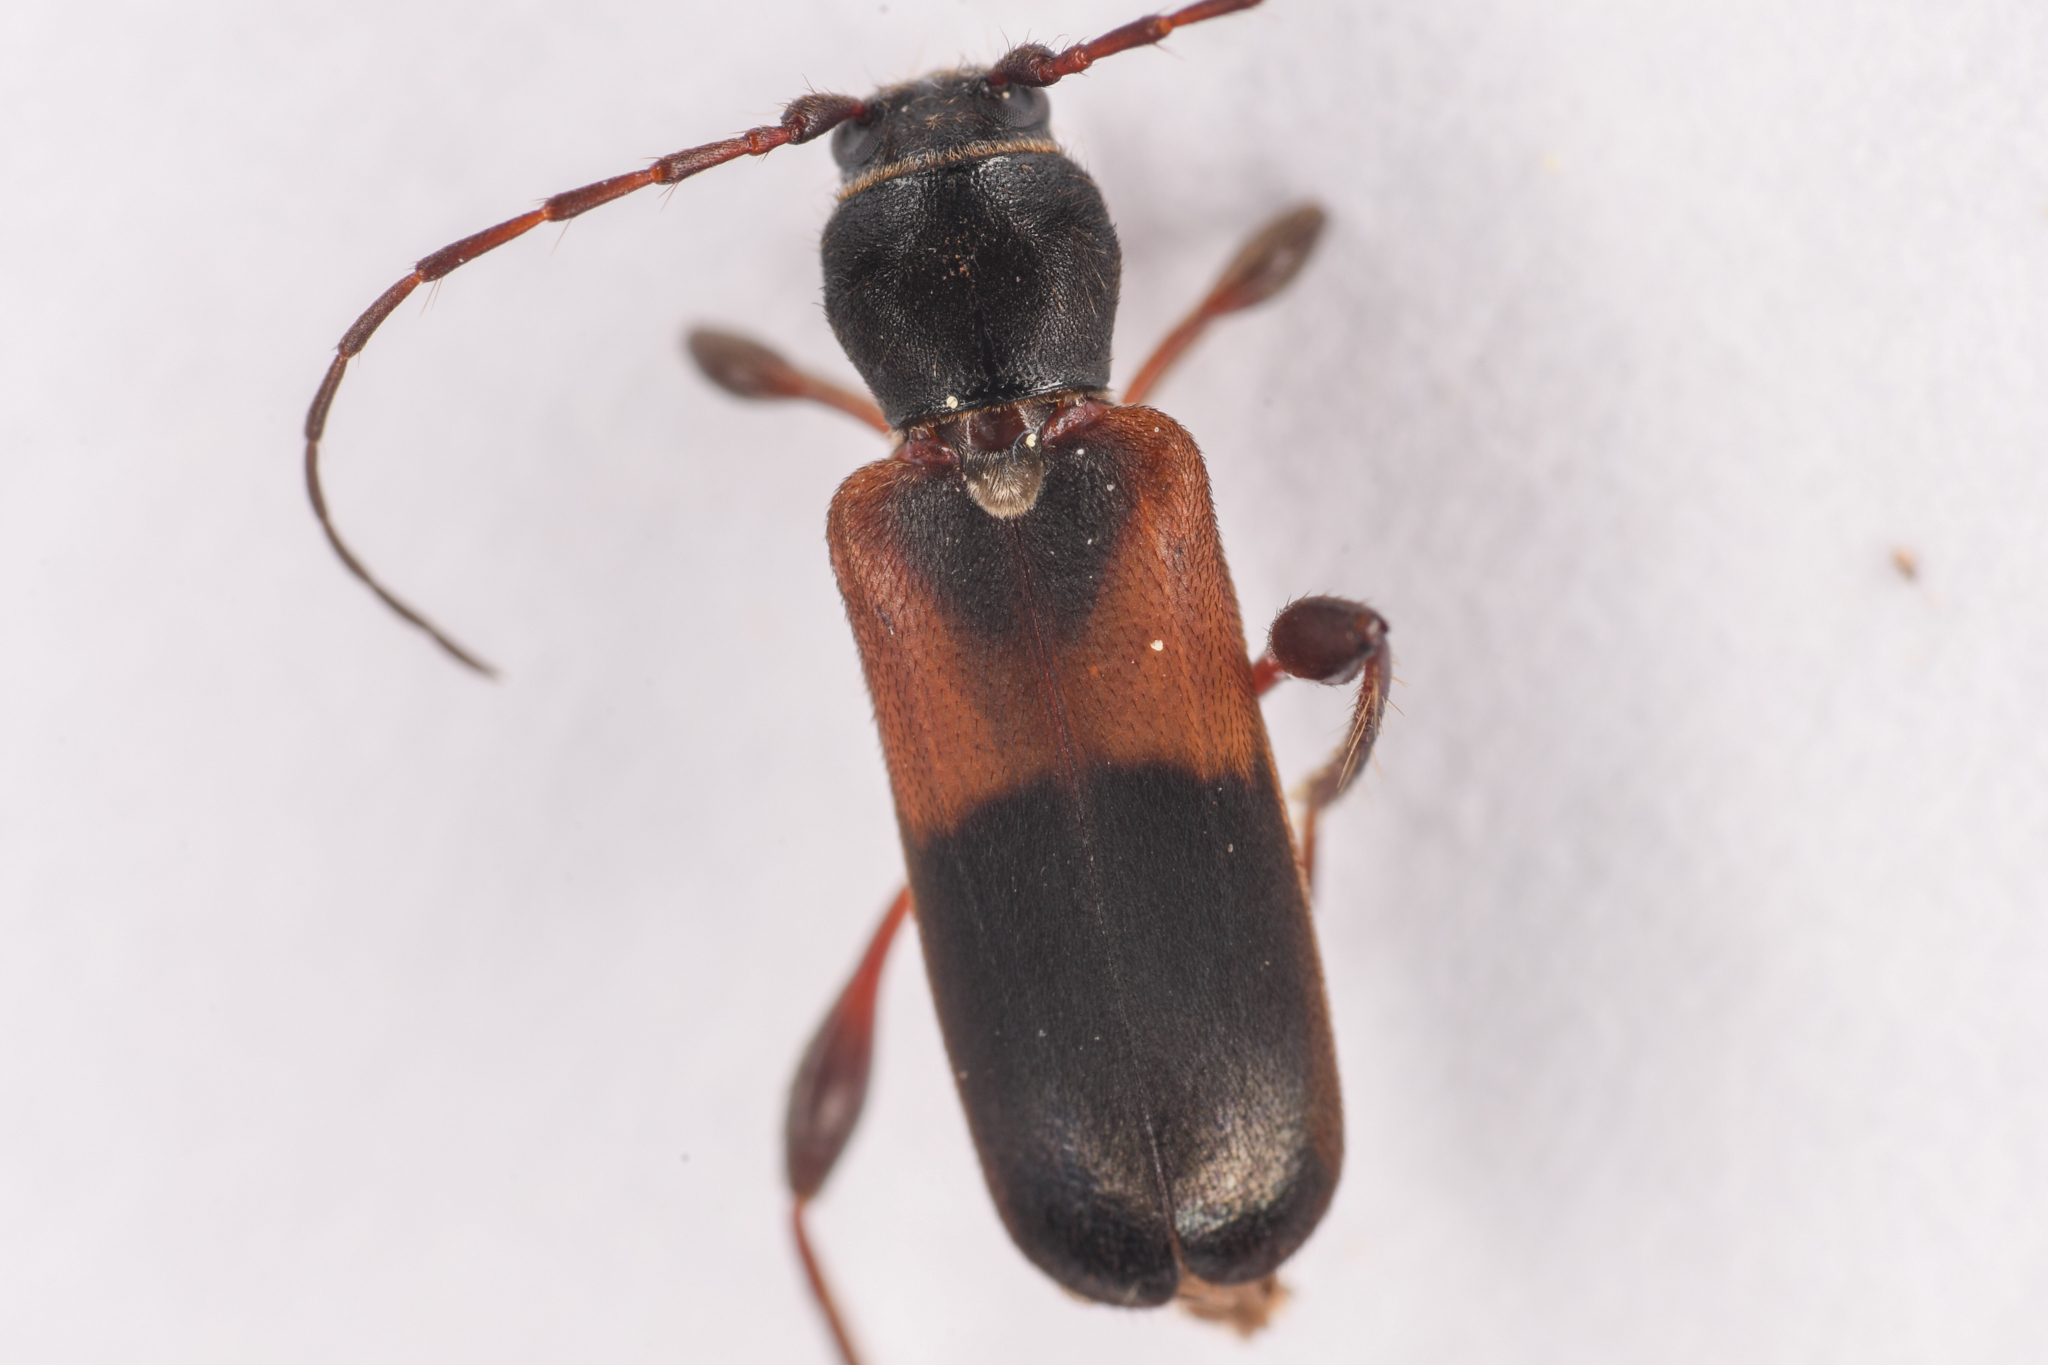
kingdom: Animalia
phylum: Arthropoda
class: Insecta
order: Coleoptera
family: Cerambycidae
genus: Phymatodes
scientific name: Phymatodes dimidiatus
